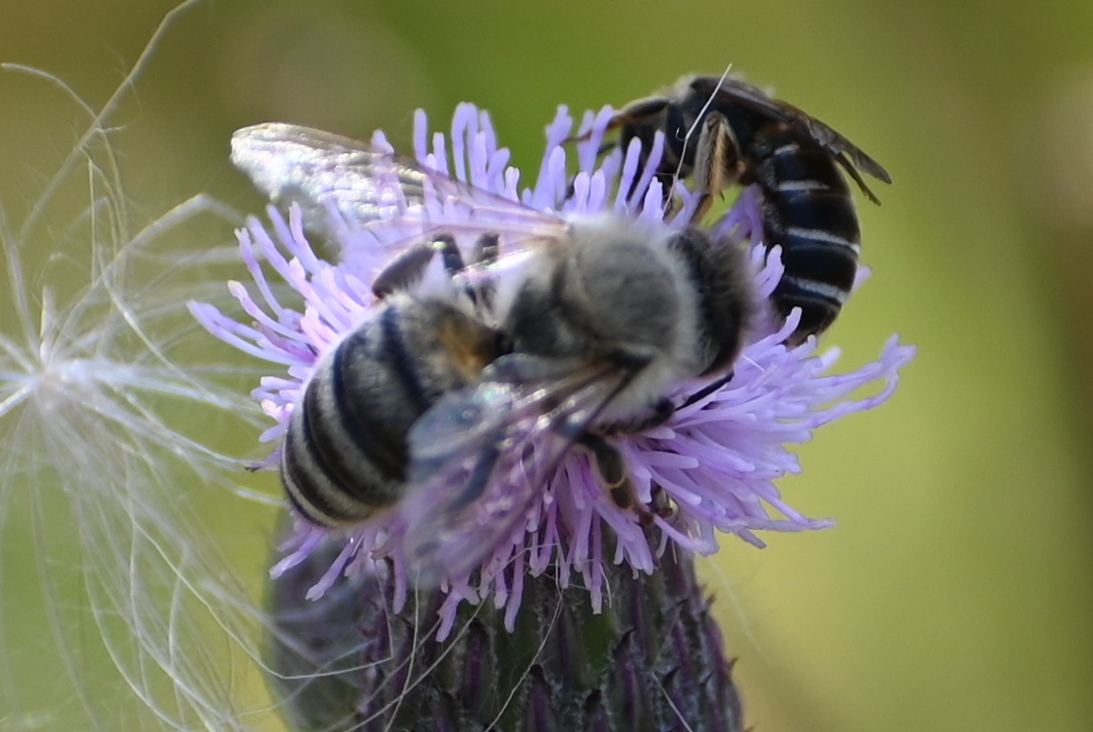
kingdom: Animalia
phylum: Arthropoda
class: Insecta
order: Hymenoptera
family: Apidae
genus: Apis
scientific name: Apis mellifera
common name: Honey bee
